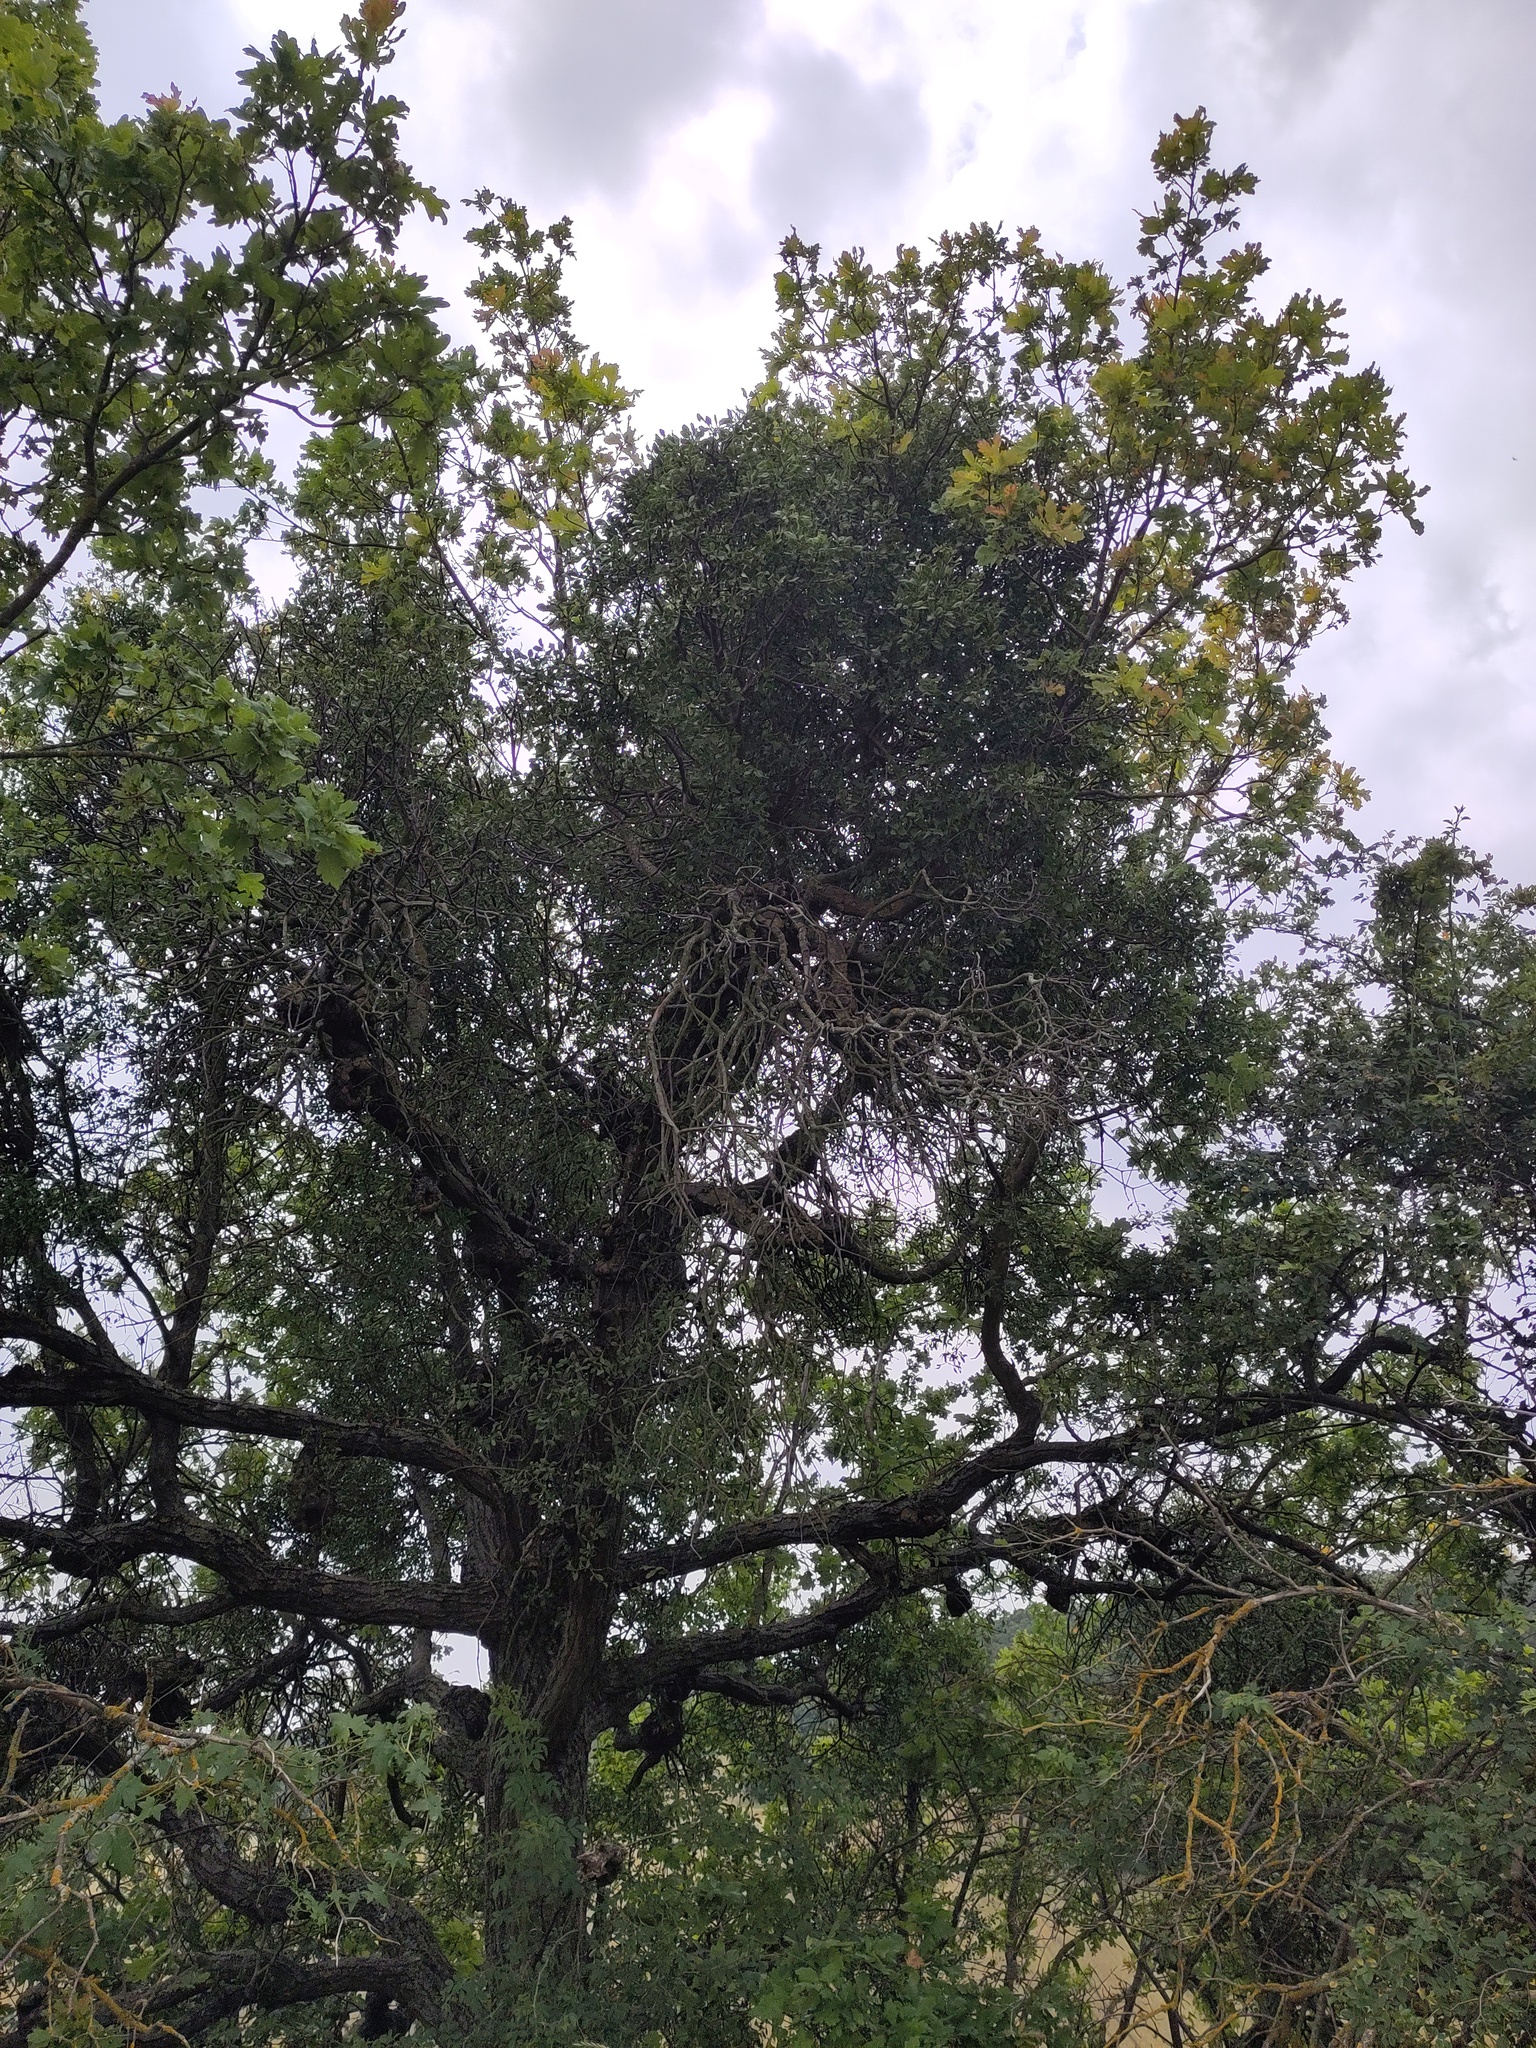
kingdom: Plantae
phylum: Tracheophyta
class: Magnoliopsida
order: Santalales
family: Loranthaceae
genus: Loranthus
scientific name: Loranthus europaeus
